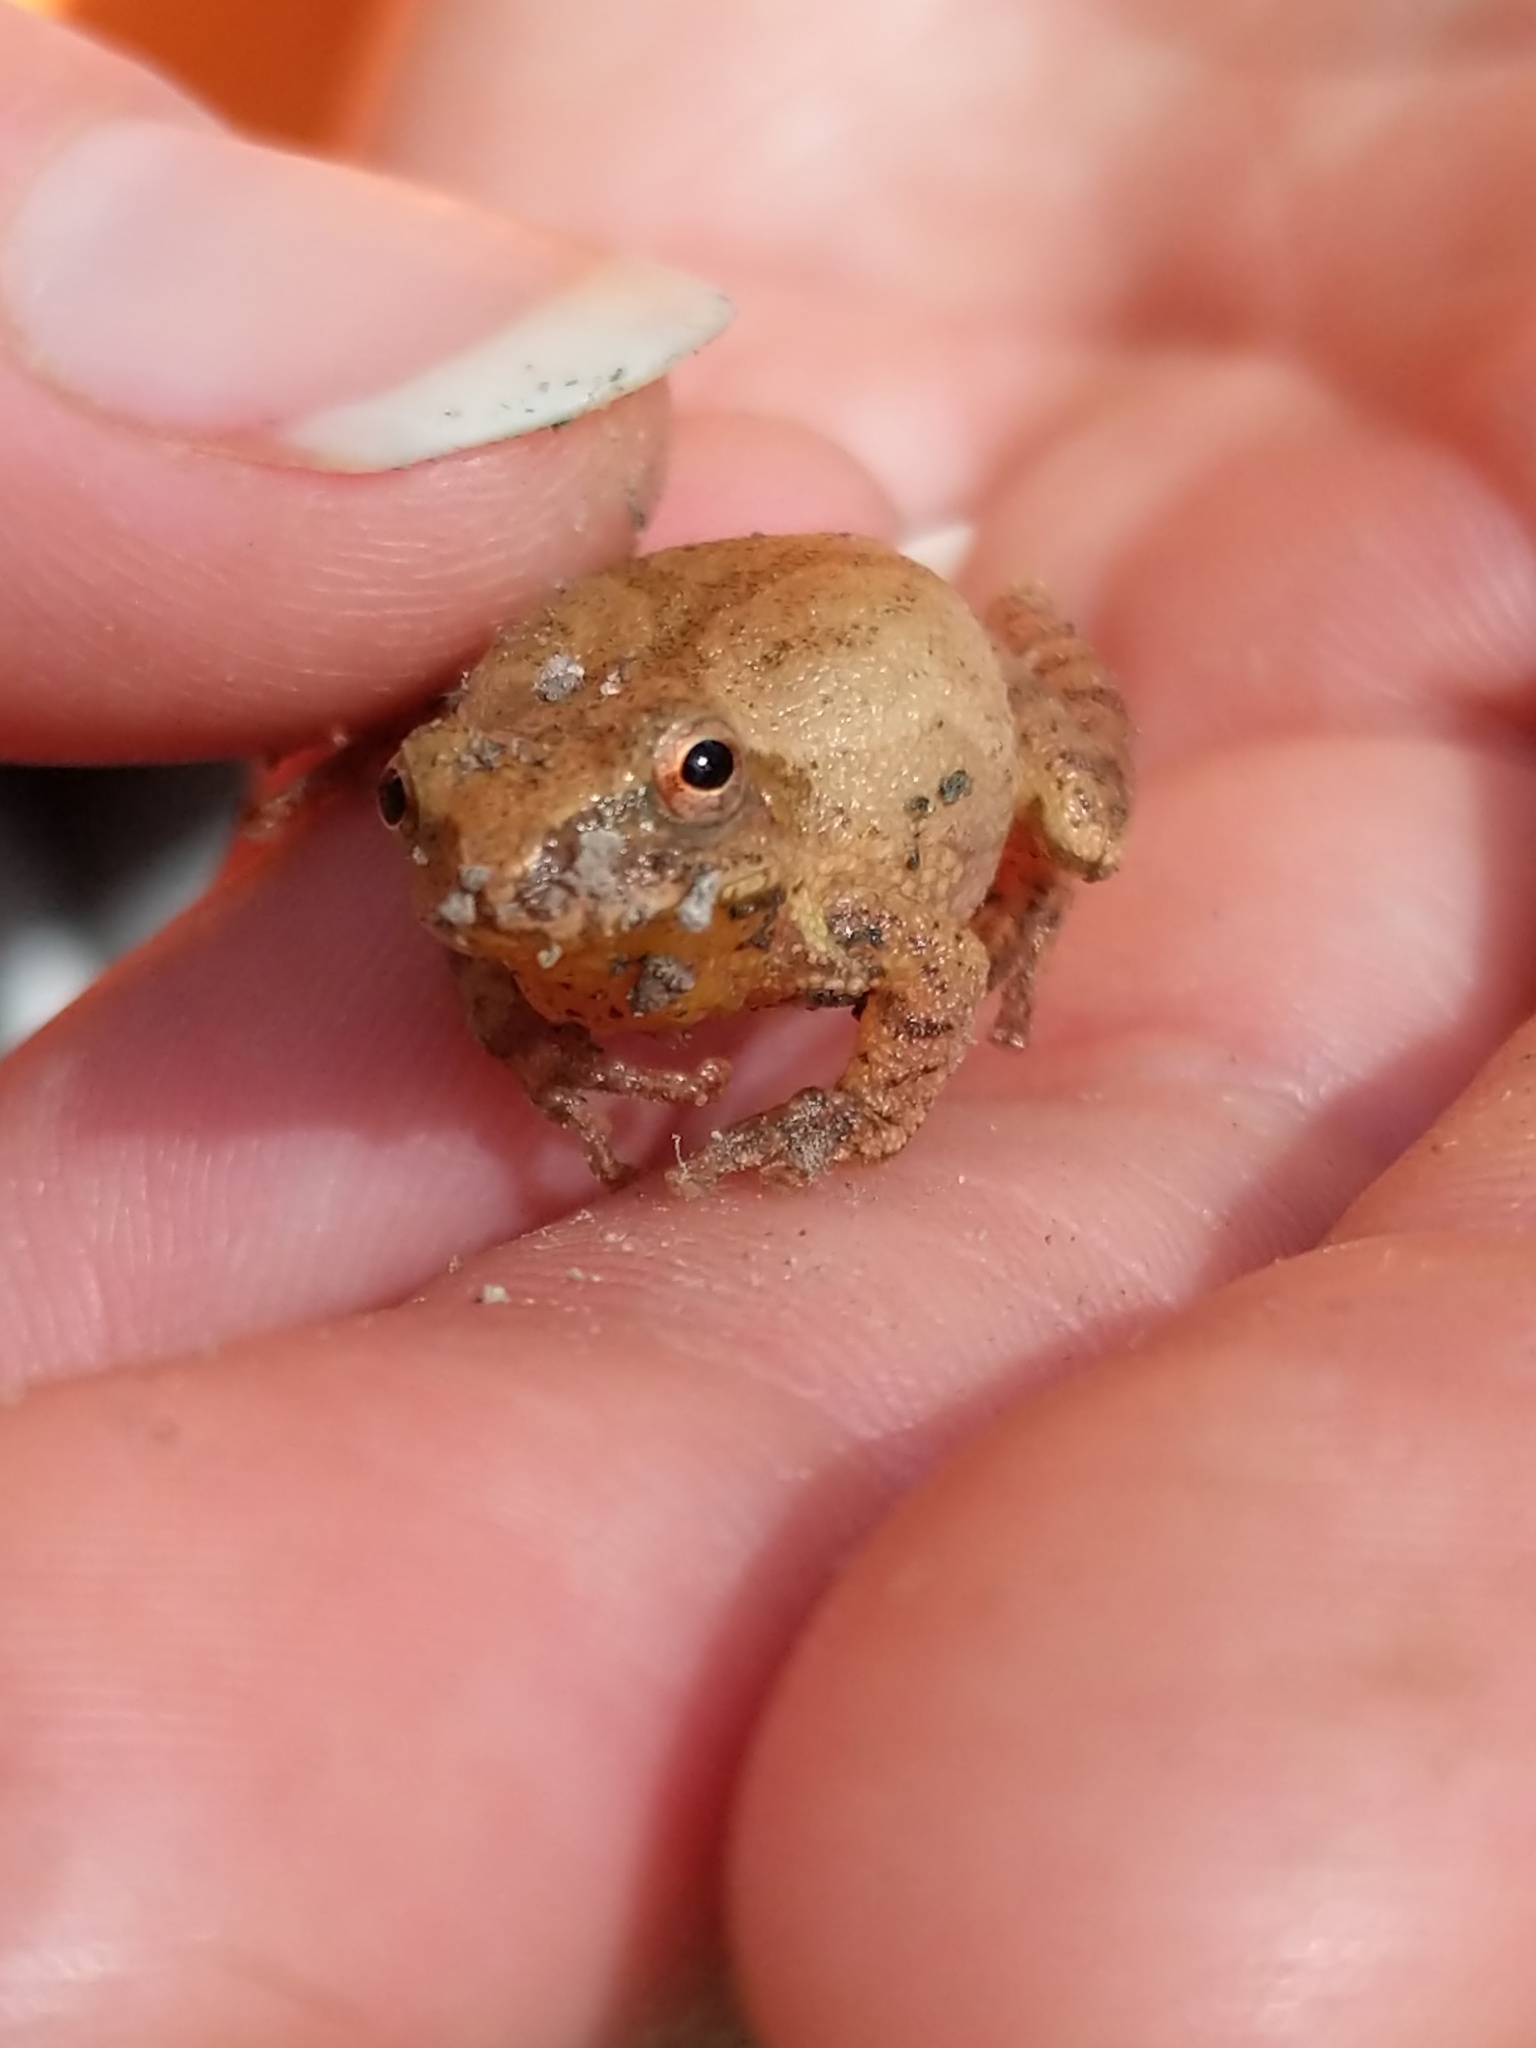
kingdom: Animalia
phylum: Chordata
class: Amphibia
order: Anura
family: Hylidae
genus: Pseudacris
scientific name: Pseudacris crucifer
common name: Spring peeper
